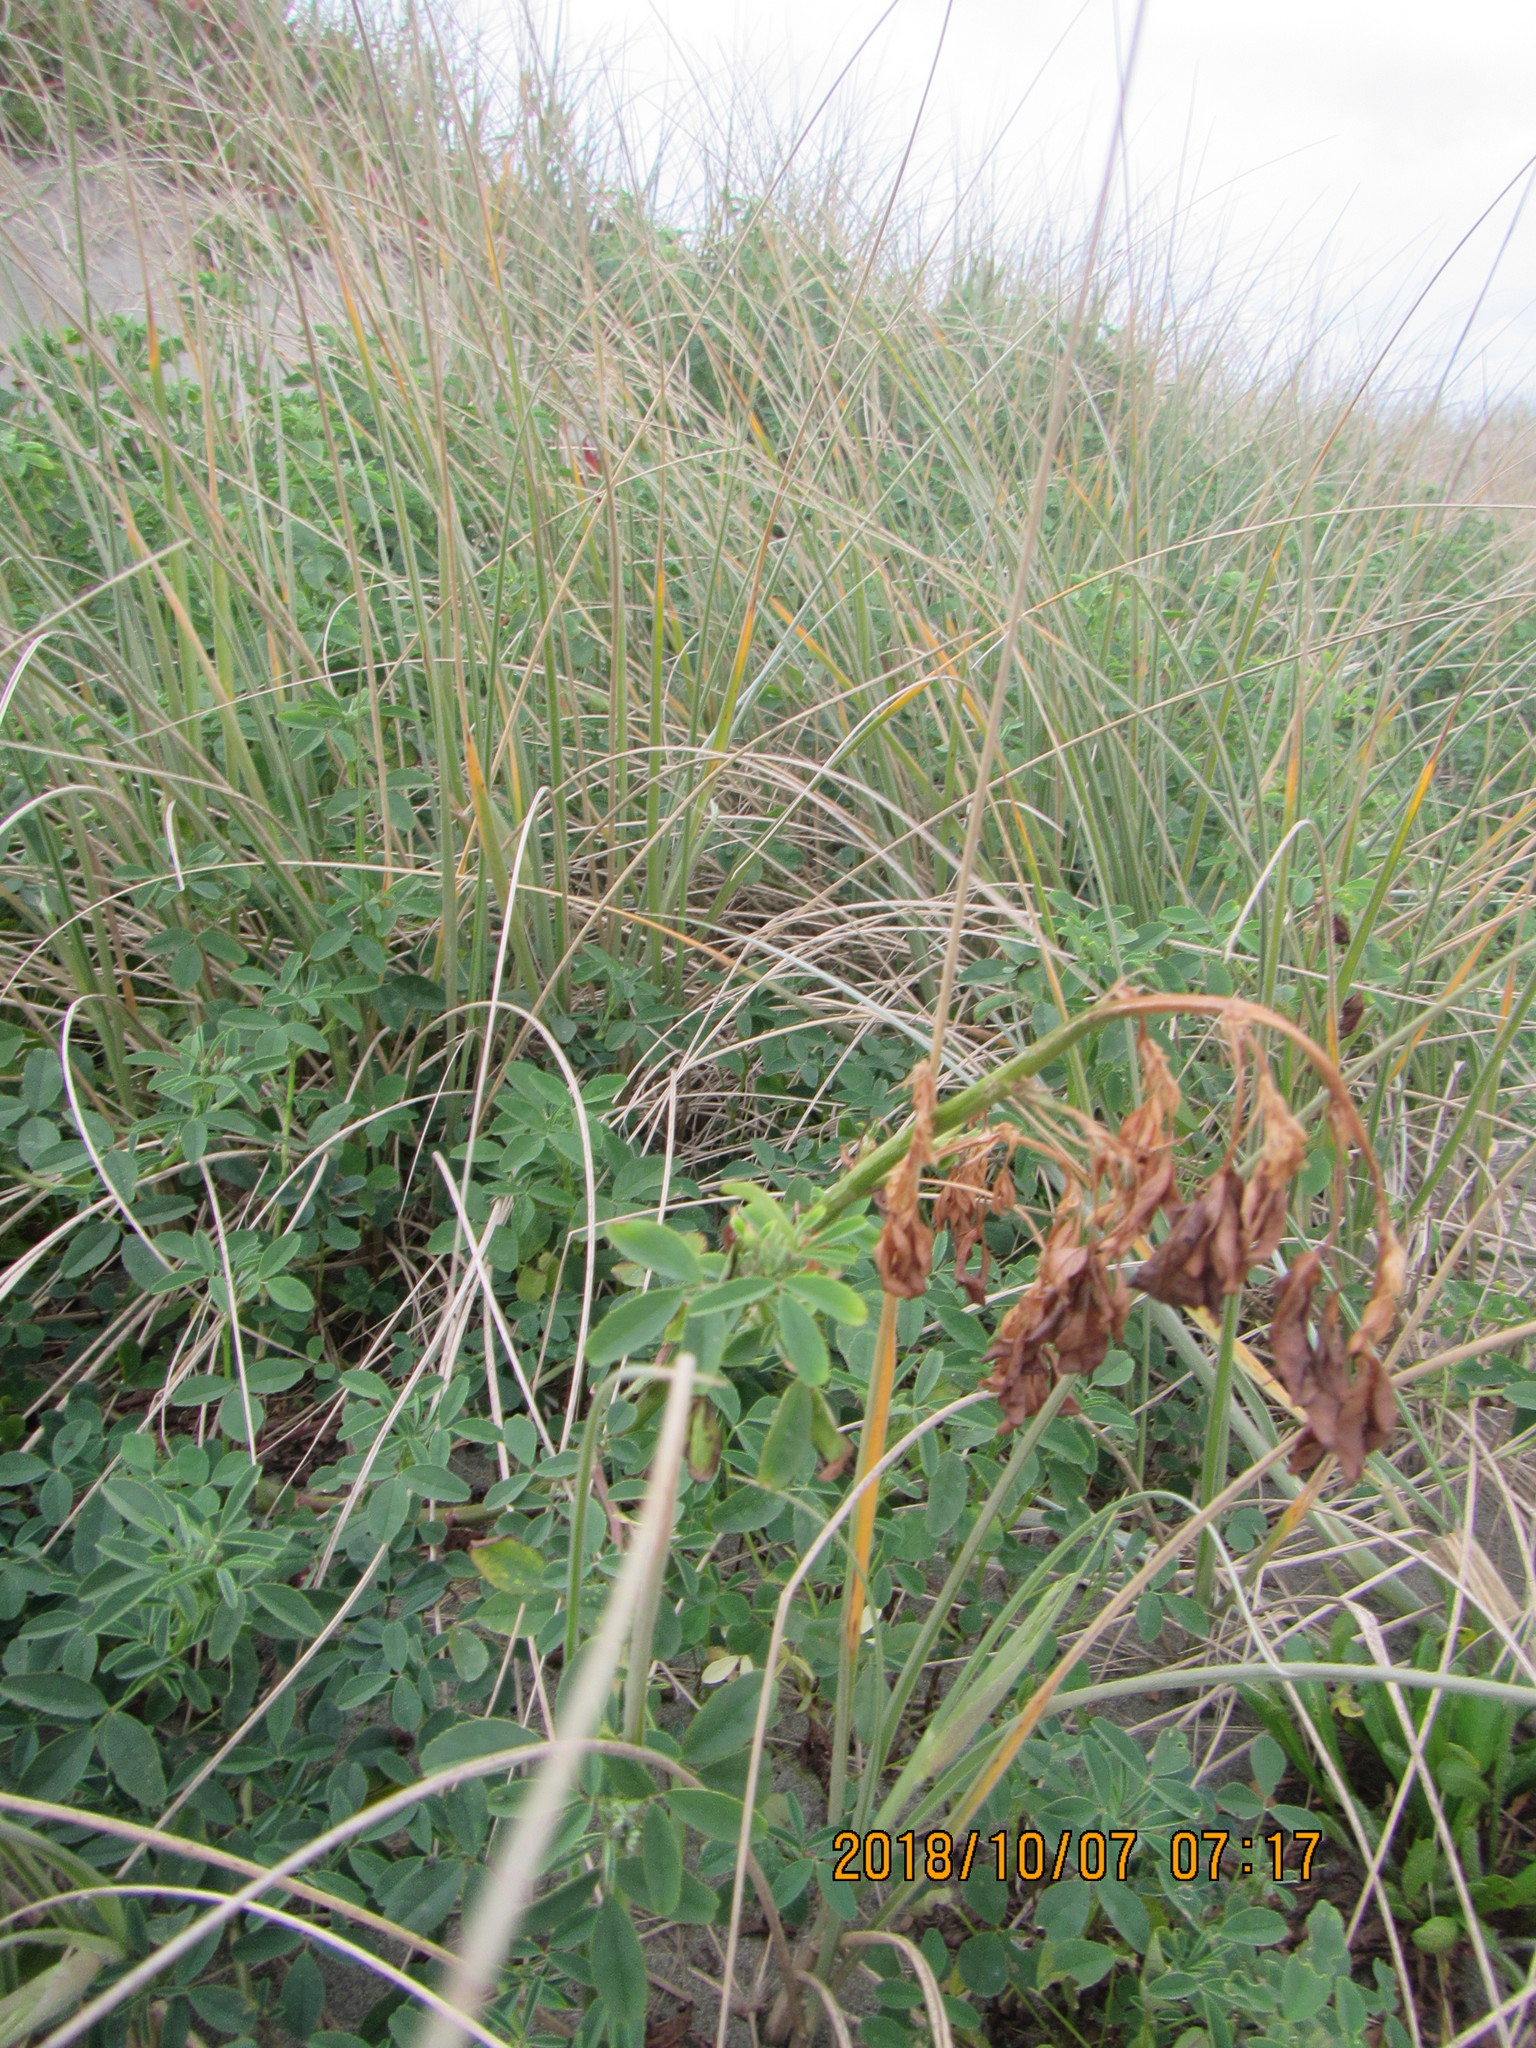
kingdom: Plantae
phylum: Tracheophyta
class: Magnoliopsida
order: Fabales
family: Fabaceae
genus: Melilotus
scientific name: Melilotus indicus
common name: Small melilot
